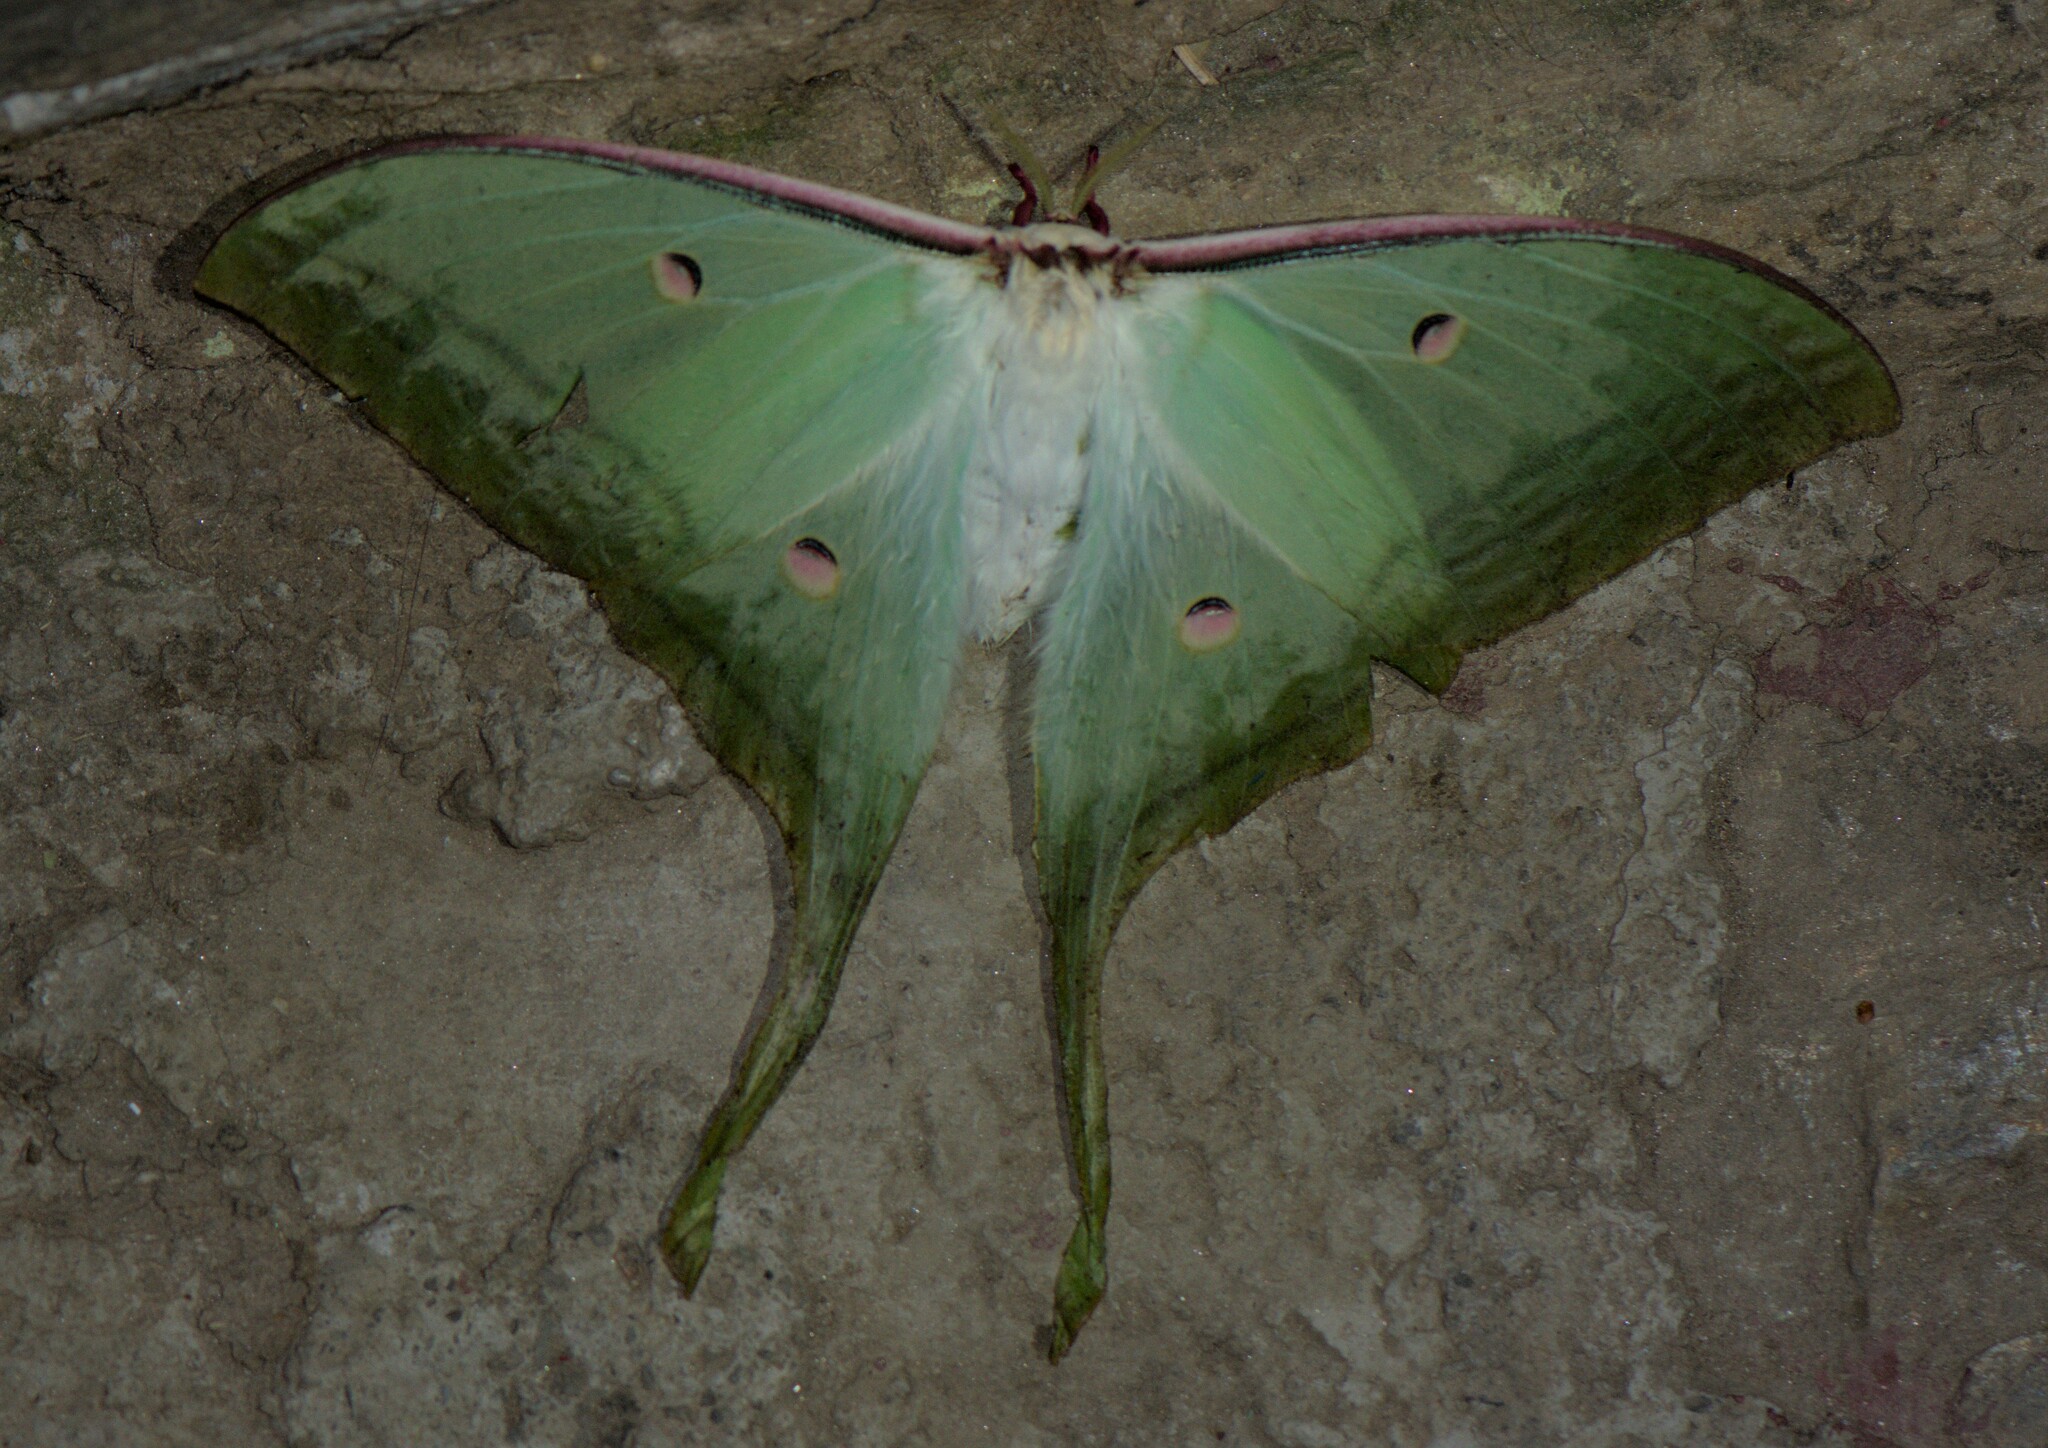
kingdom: Animalia
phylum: Arthropoda
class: Insecta
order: Lepidoptera
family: Saturniidae
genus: Actias
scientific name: Actias selene
